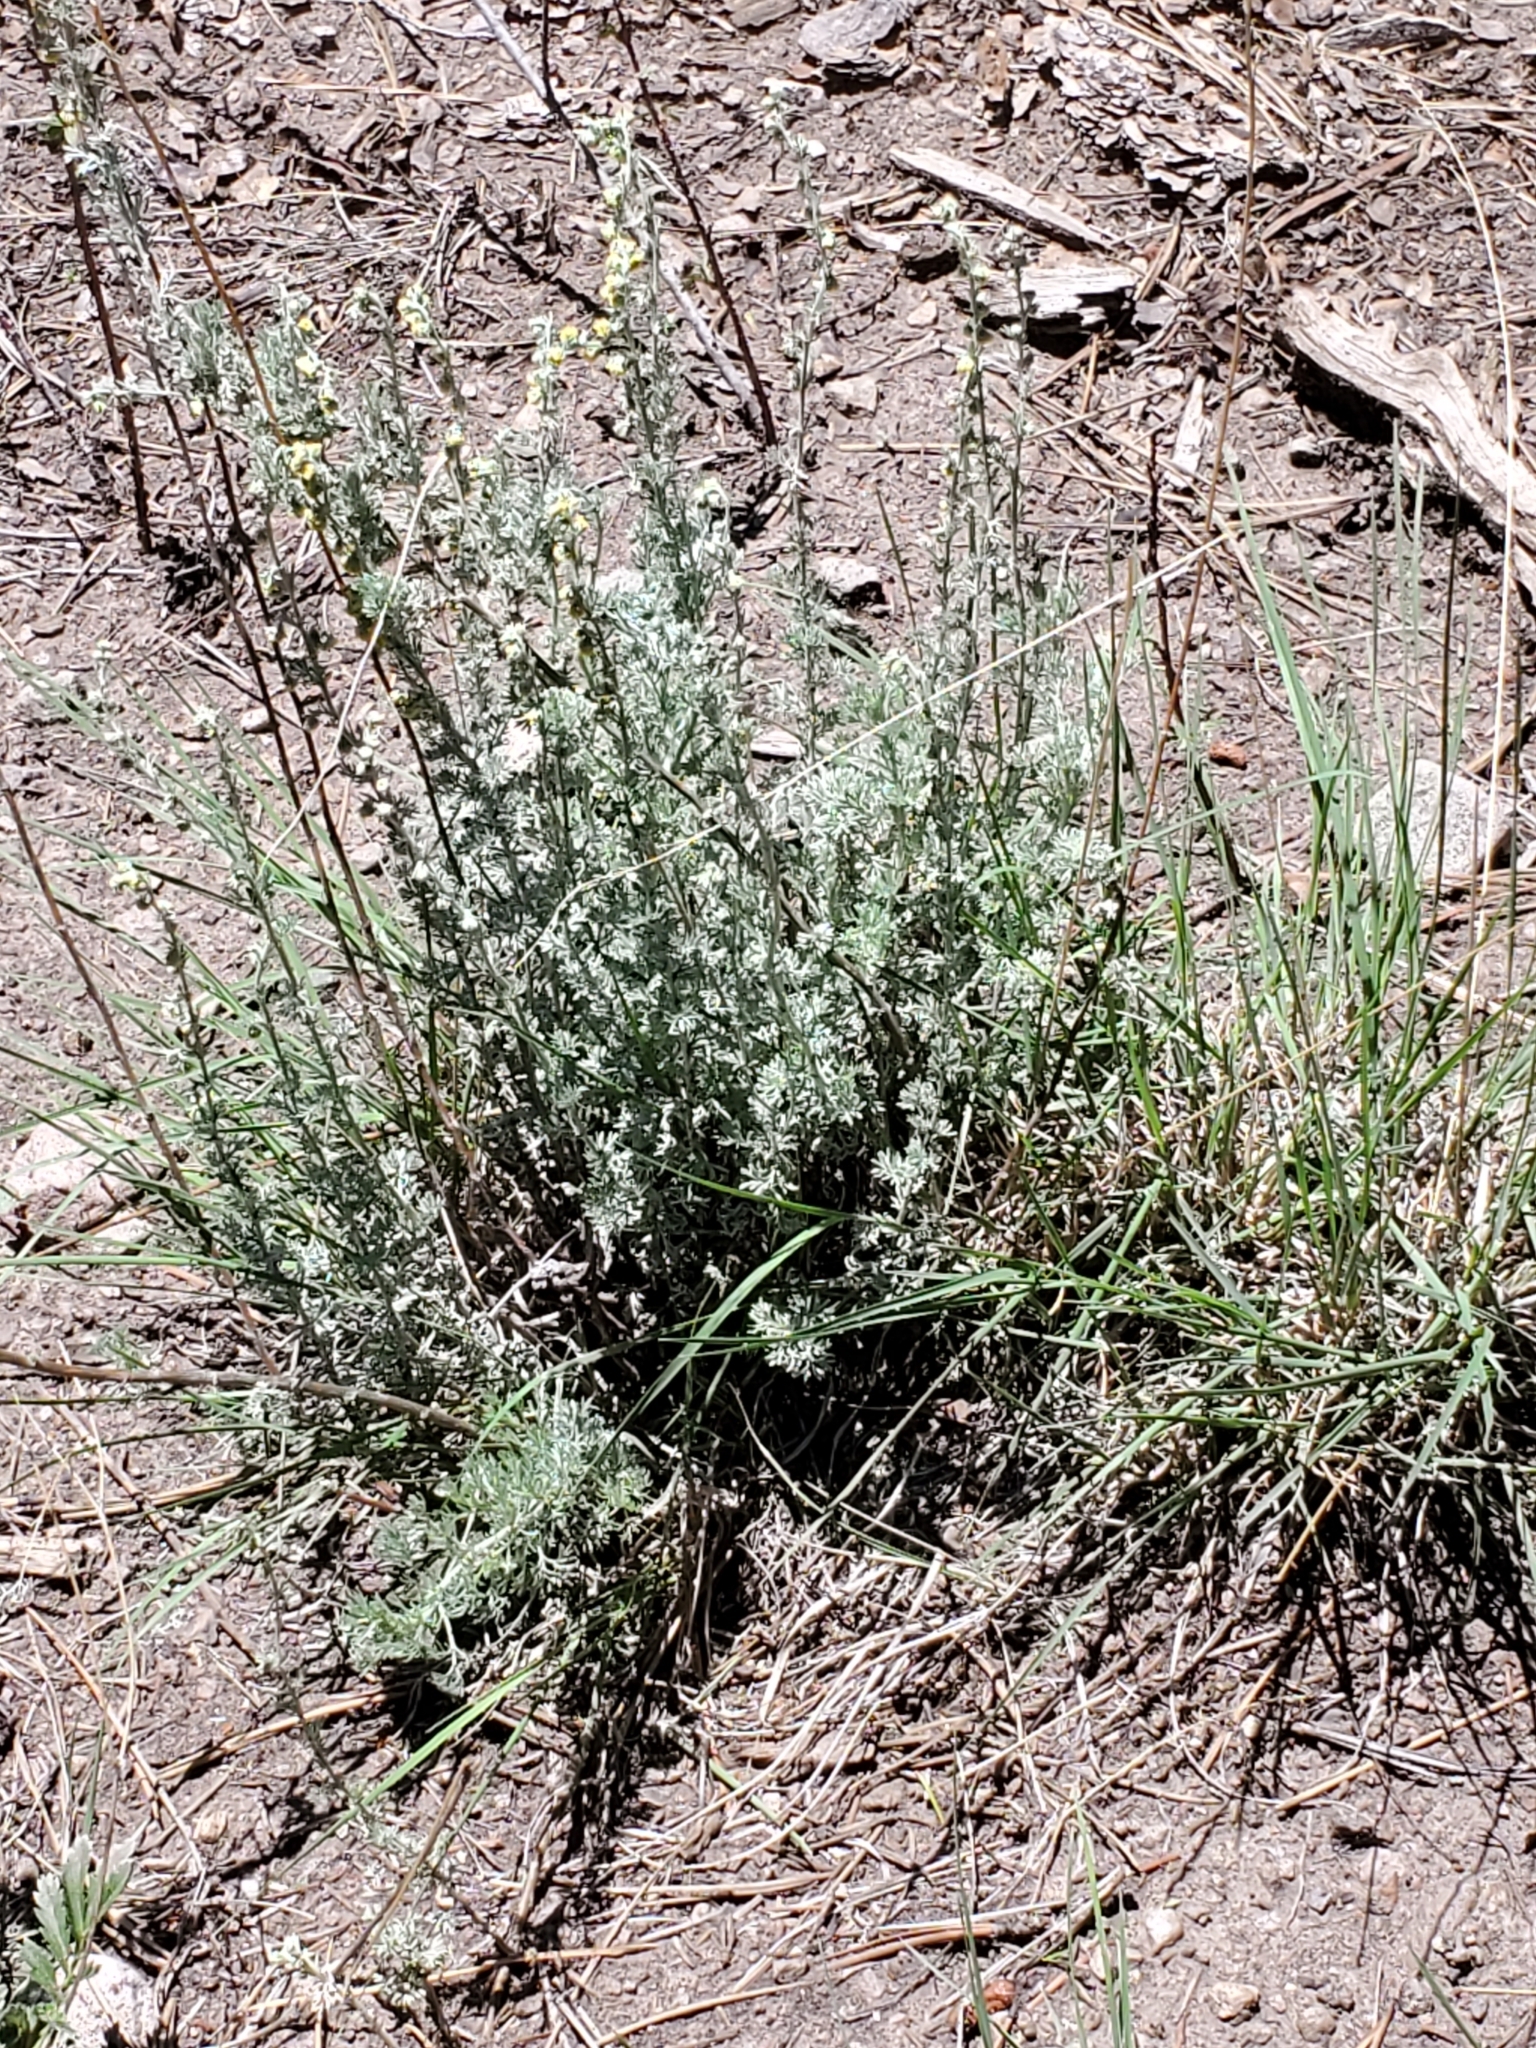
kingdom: Plantae
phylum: Tracheophyta
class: Magnoliopsida
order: Asterales
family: Asteraceae
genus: Artemisia
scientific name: Artemisia frigida
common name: Prairie sagewort
